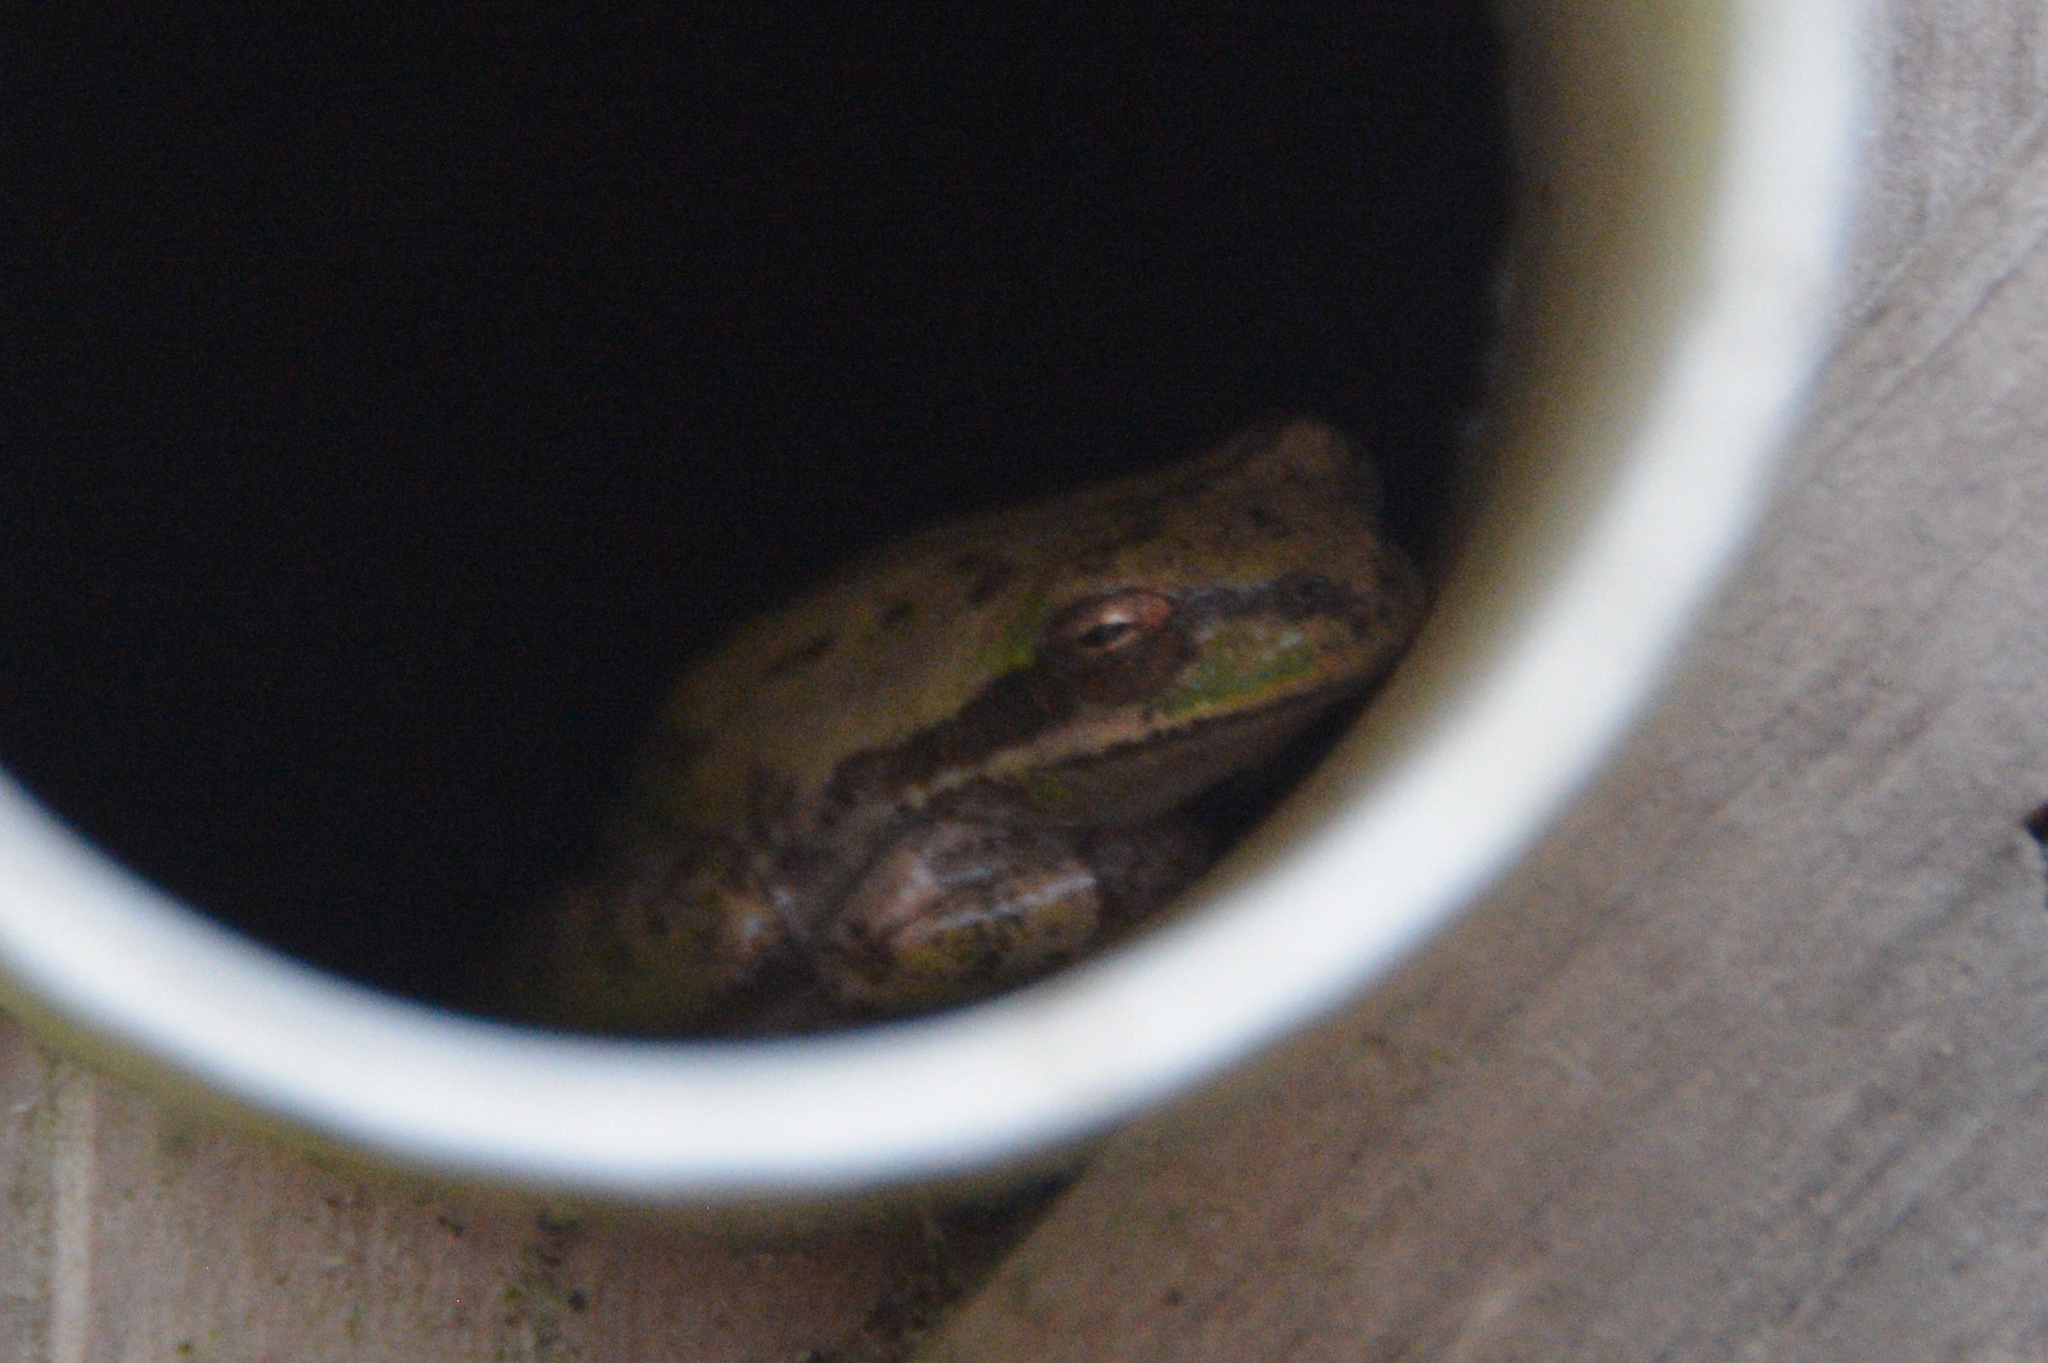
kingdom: Animalia
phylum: Chordata
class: Amphibia
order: Anura
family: Hylidae
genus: Dryophytes
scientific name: Dryophytes squirellus
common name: Squirrel treefrog
